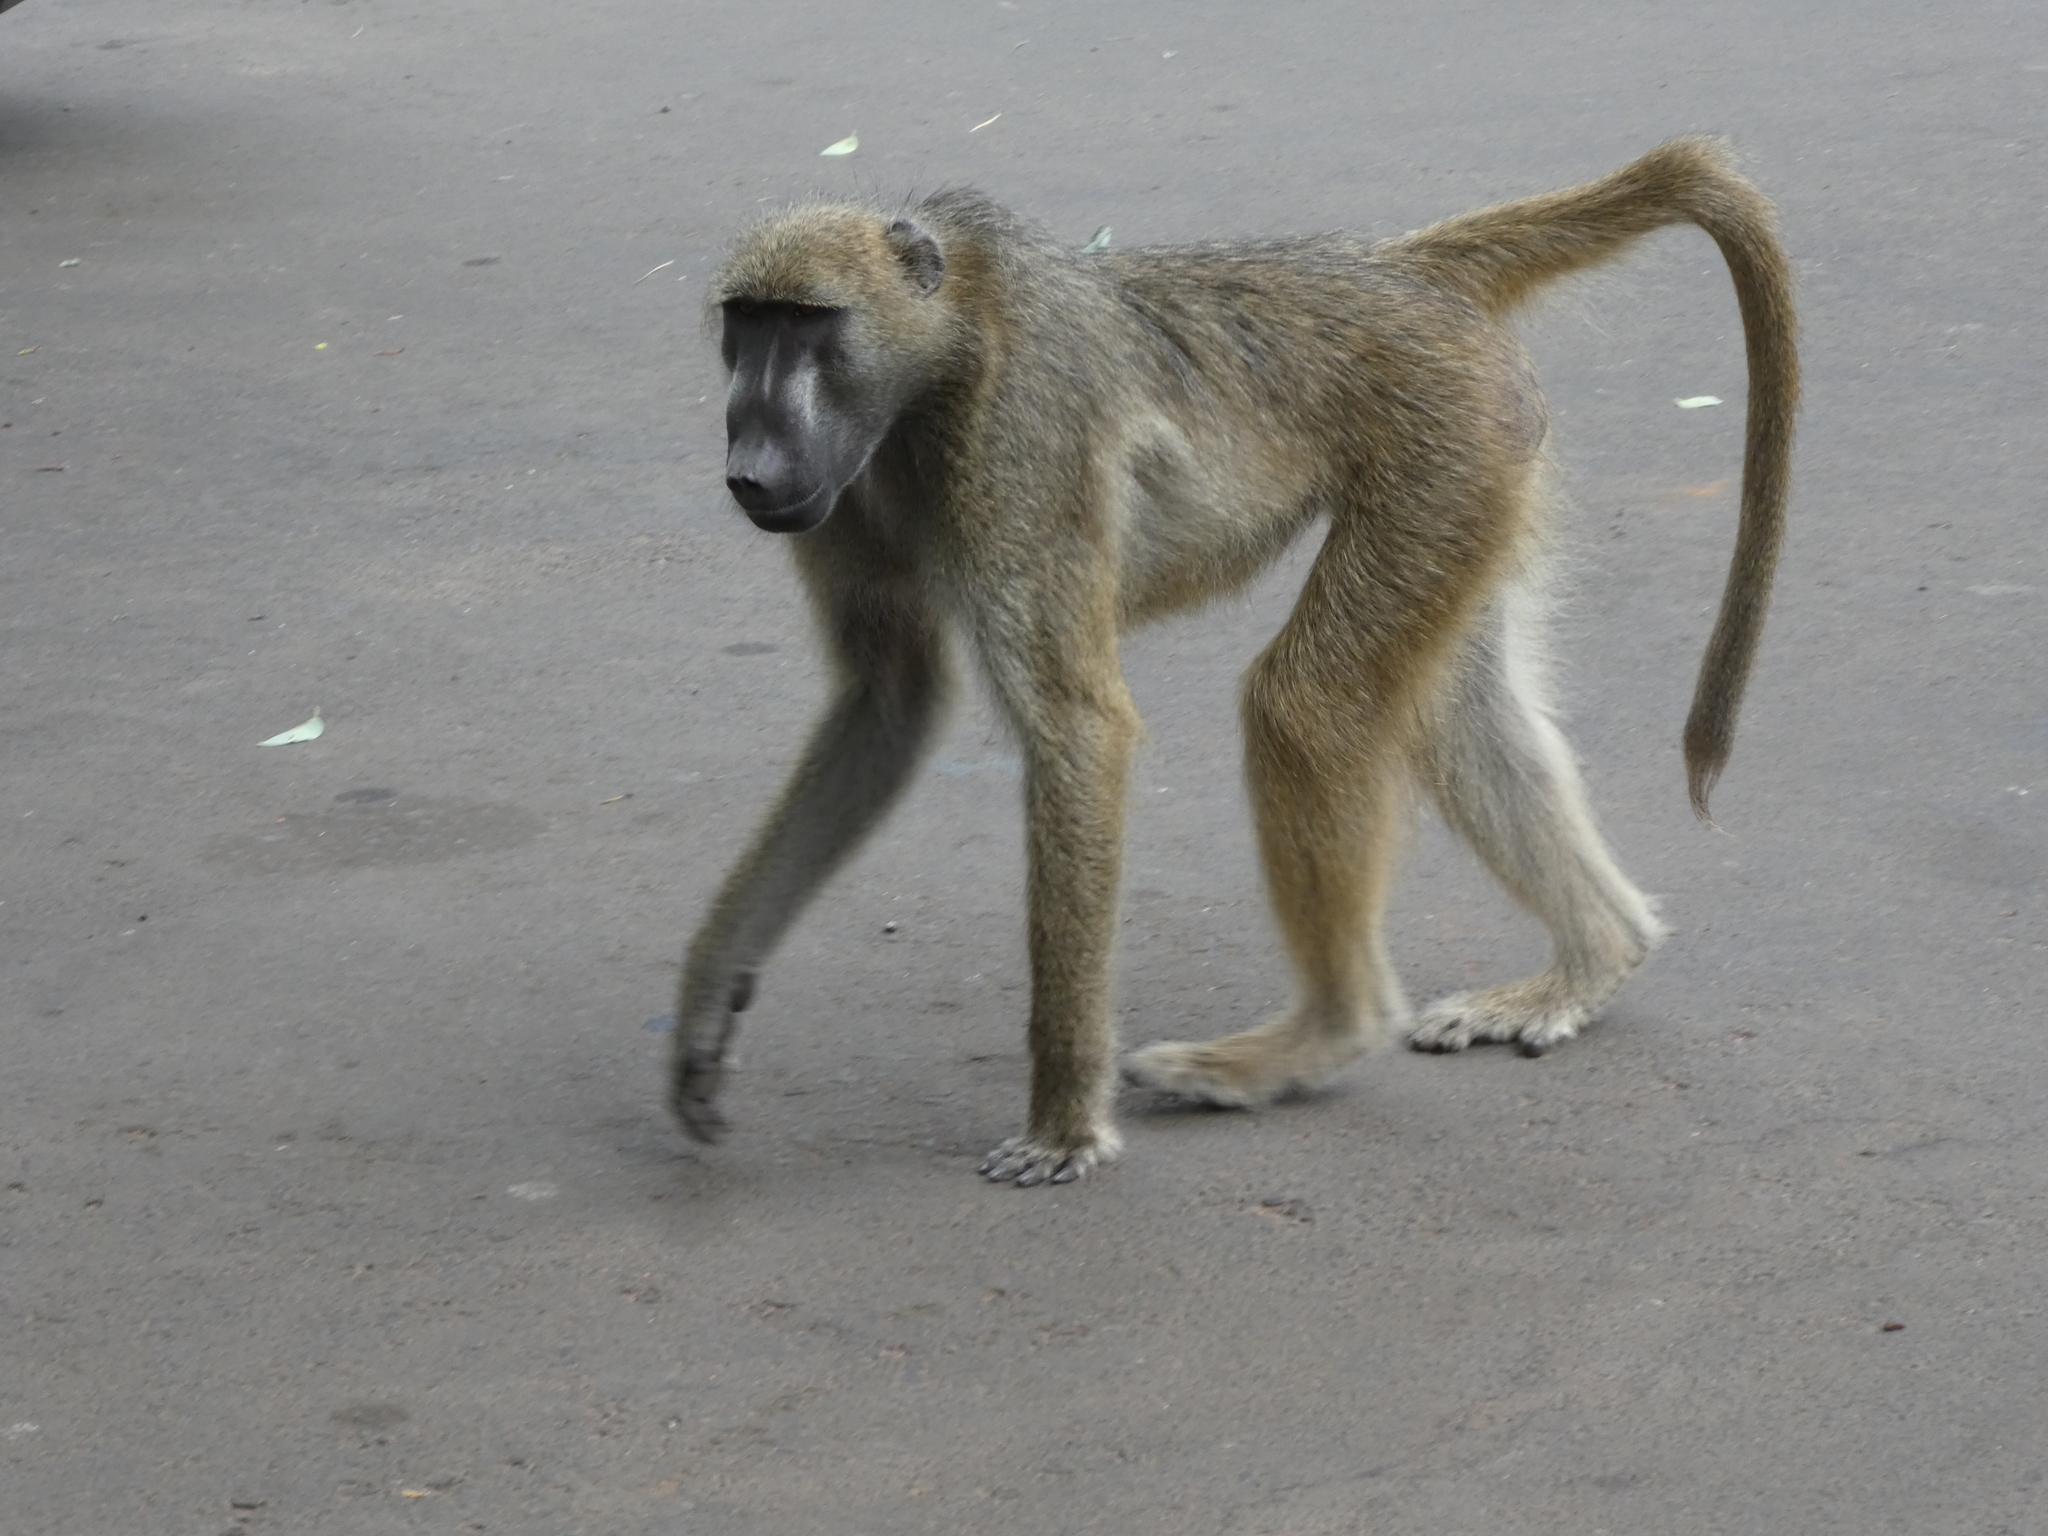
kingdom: Animalia
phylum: Chordata
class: Mammalia
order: Primates
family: Cercopithecidae
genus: Papio
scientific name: Papio ursinus
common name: Chacma baboon
